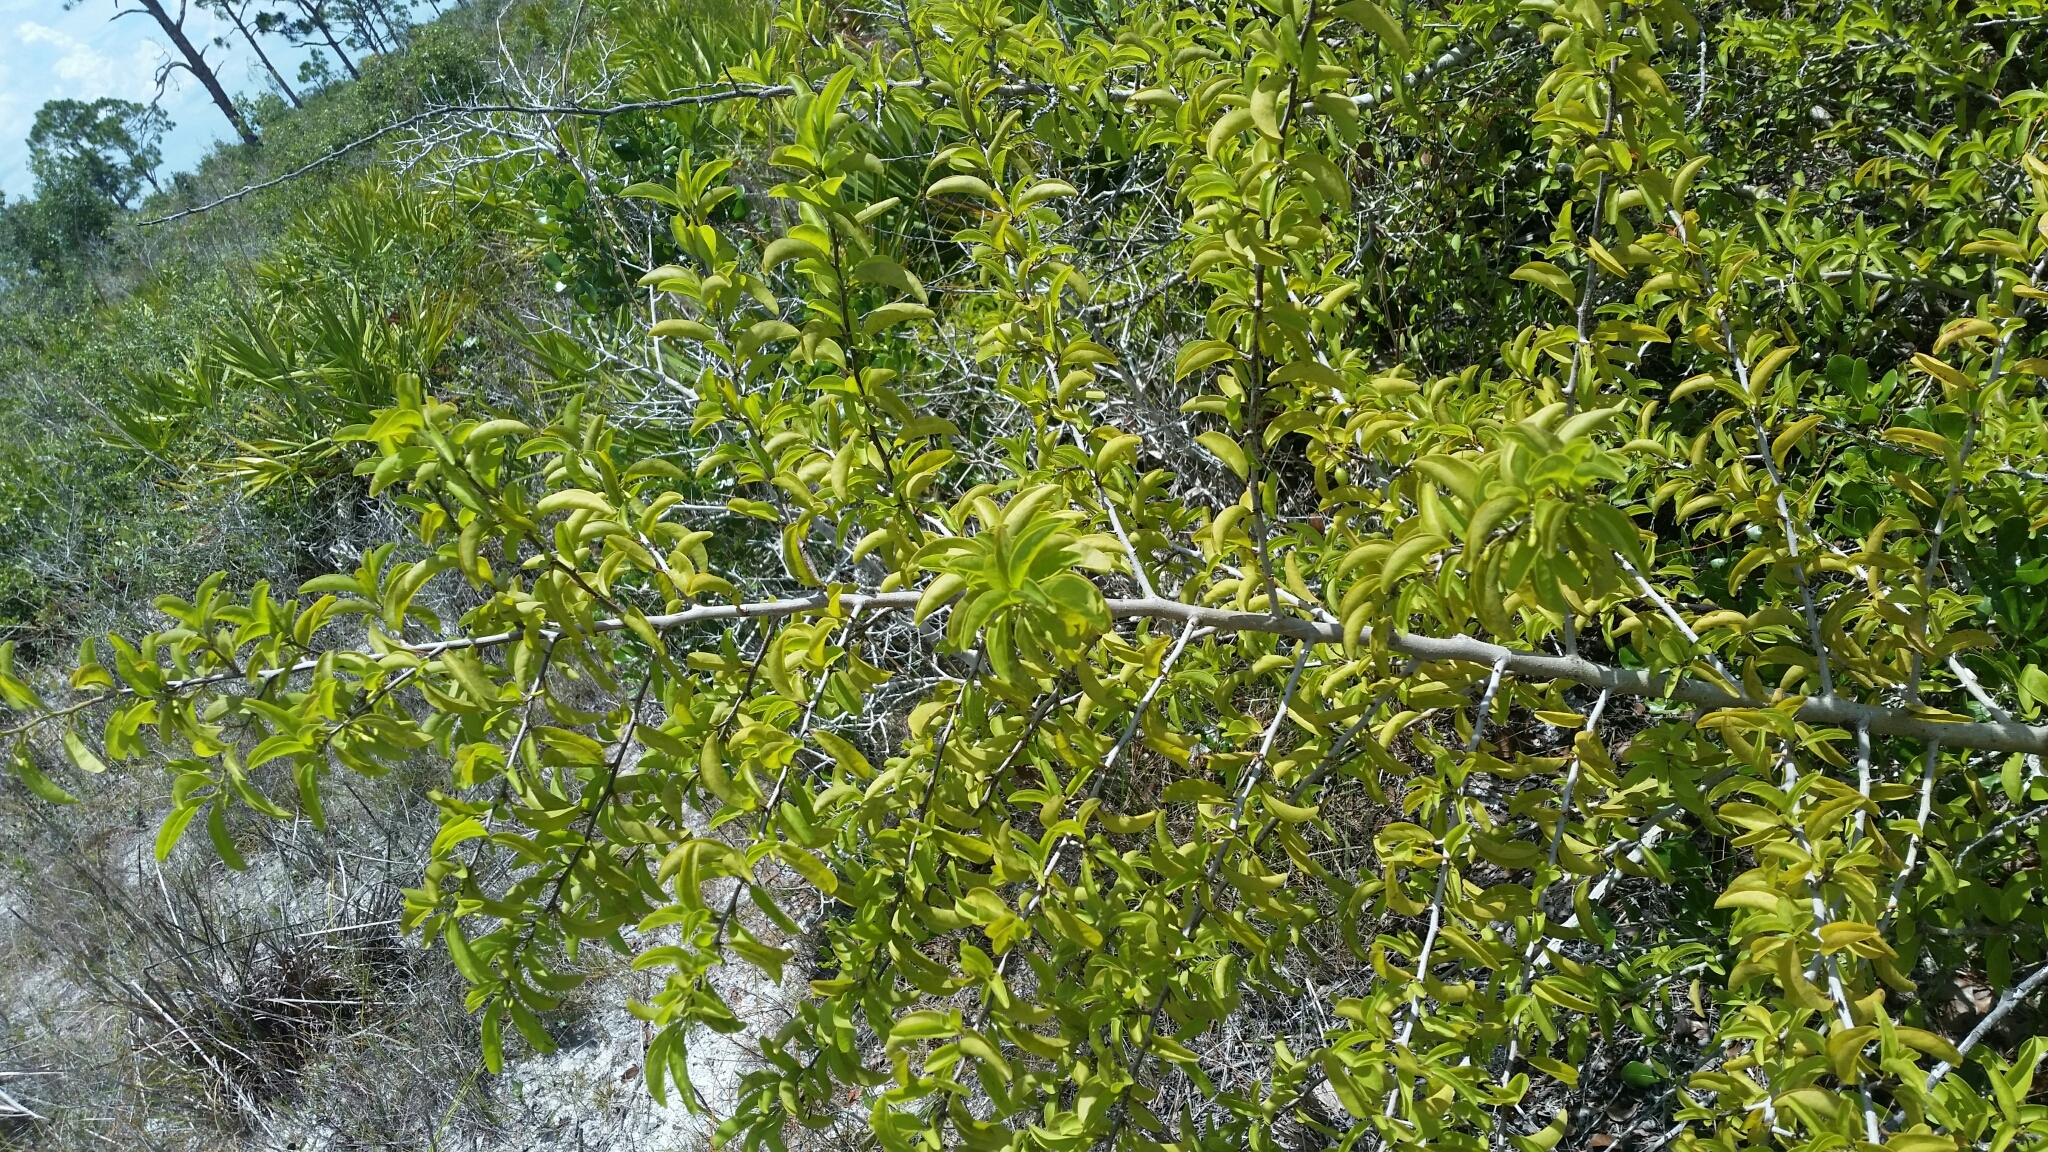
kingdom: Plantae
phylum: Tracheophyta
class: Magnoliopsida
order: Santalales
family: Ximeniaceae
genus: Ximenia
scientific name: Ximenia americana
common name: Tallowwood
